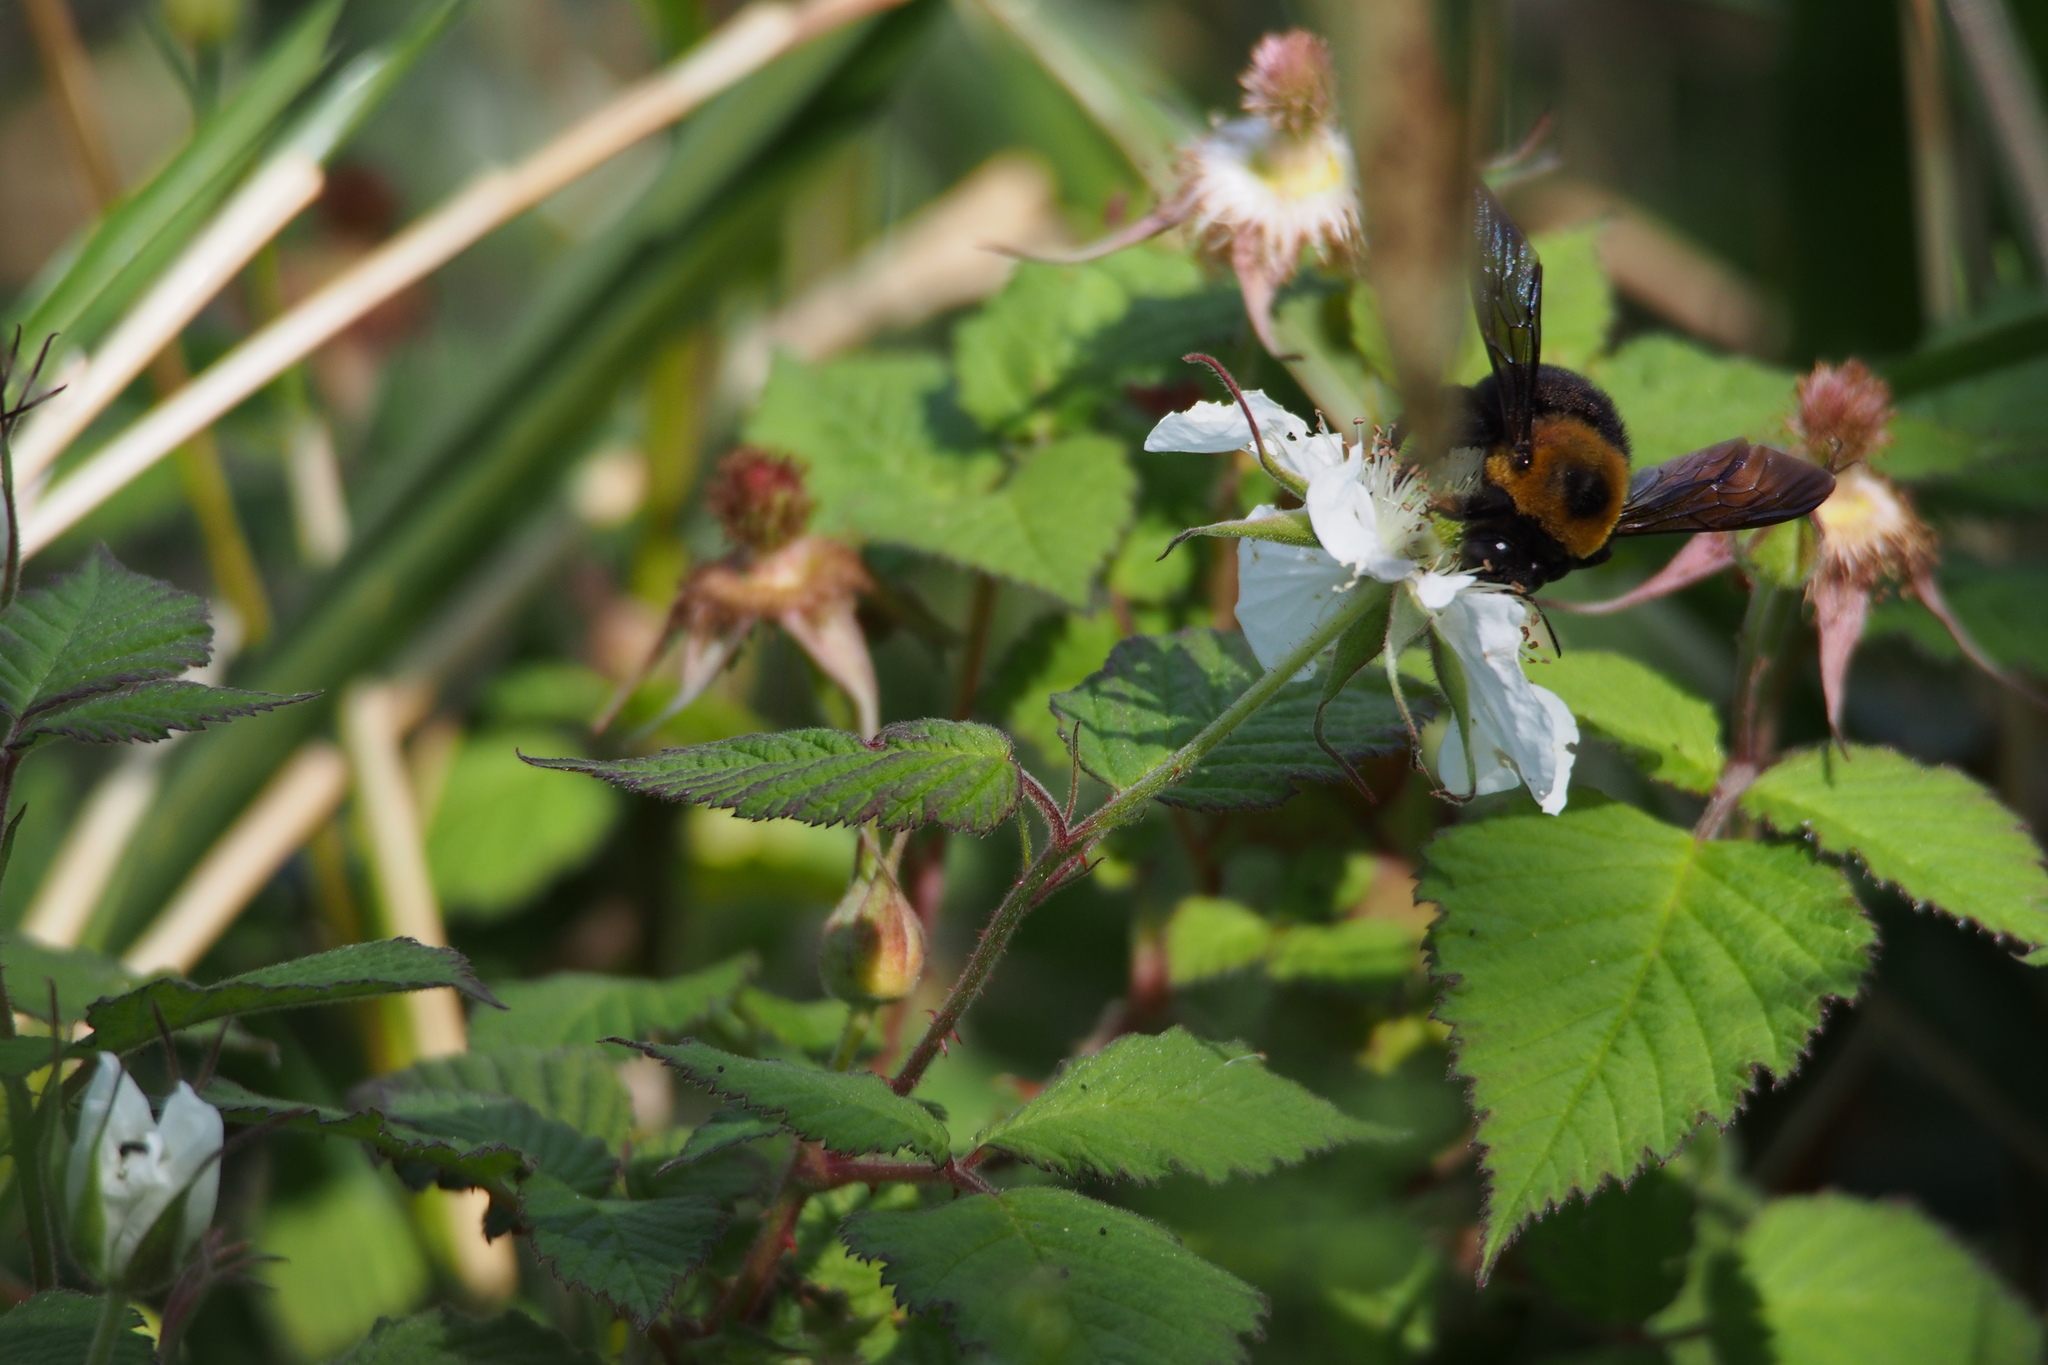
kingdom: Animalia
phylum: Arthropoda
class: Insecta
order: Hymenoptera
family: Apidae
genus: Xylocopa
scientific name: Xylocopa appendiculata
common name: Japanese carpenter bee
